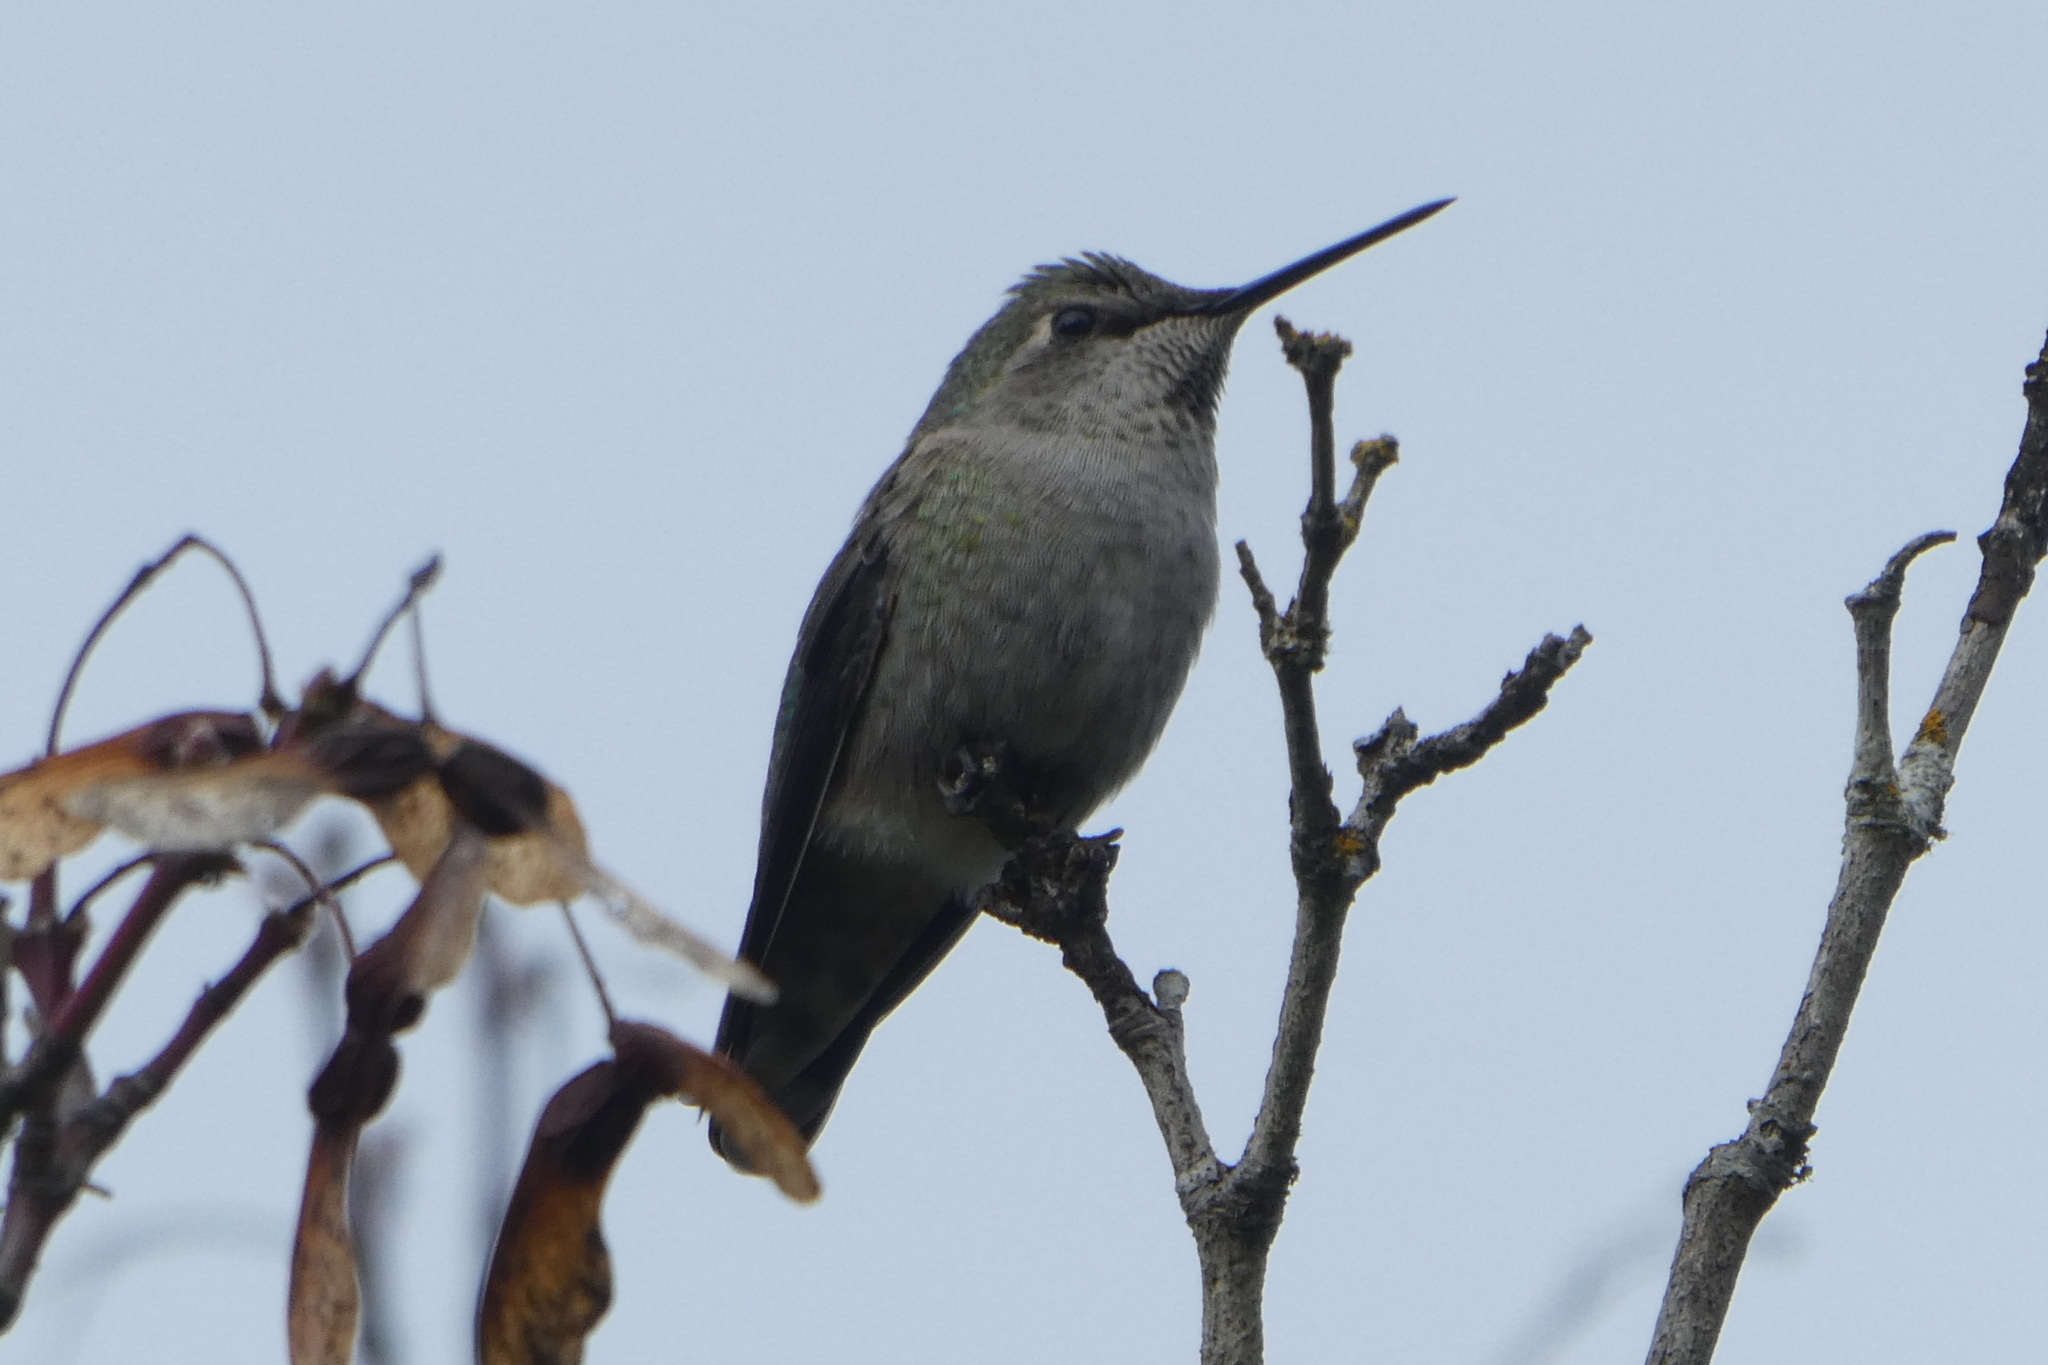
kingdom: Animalia
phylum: Chordata
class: Aves
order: Apodiformes
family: Trochilidae
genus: Calypte
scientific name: Calypte anna
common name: Anna's hummingbird
